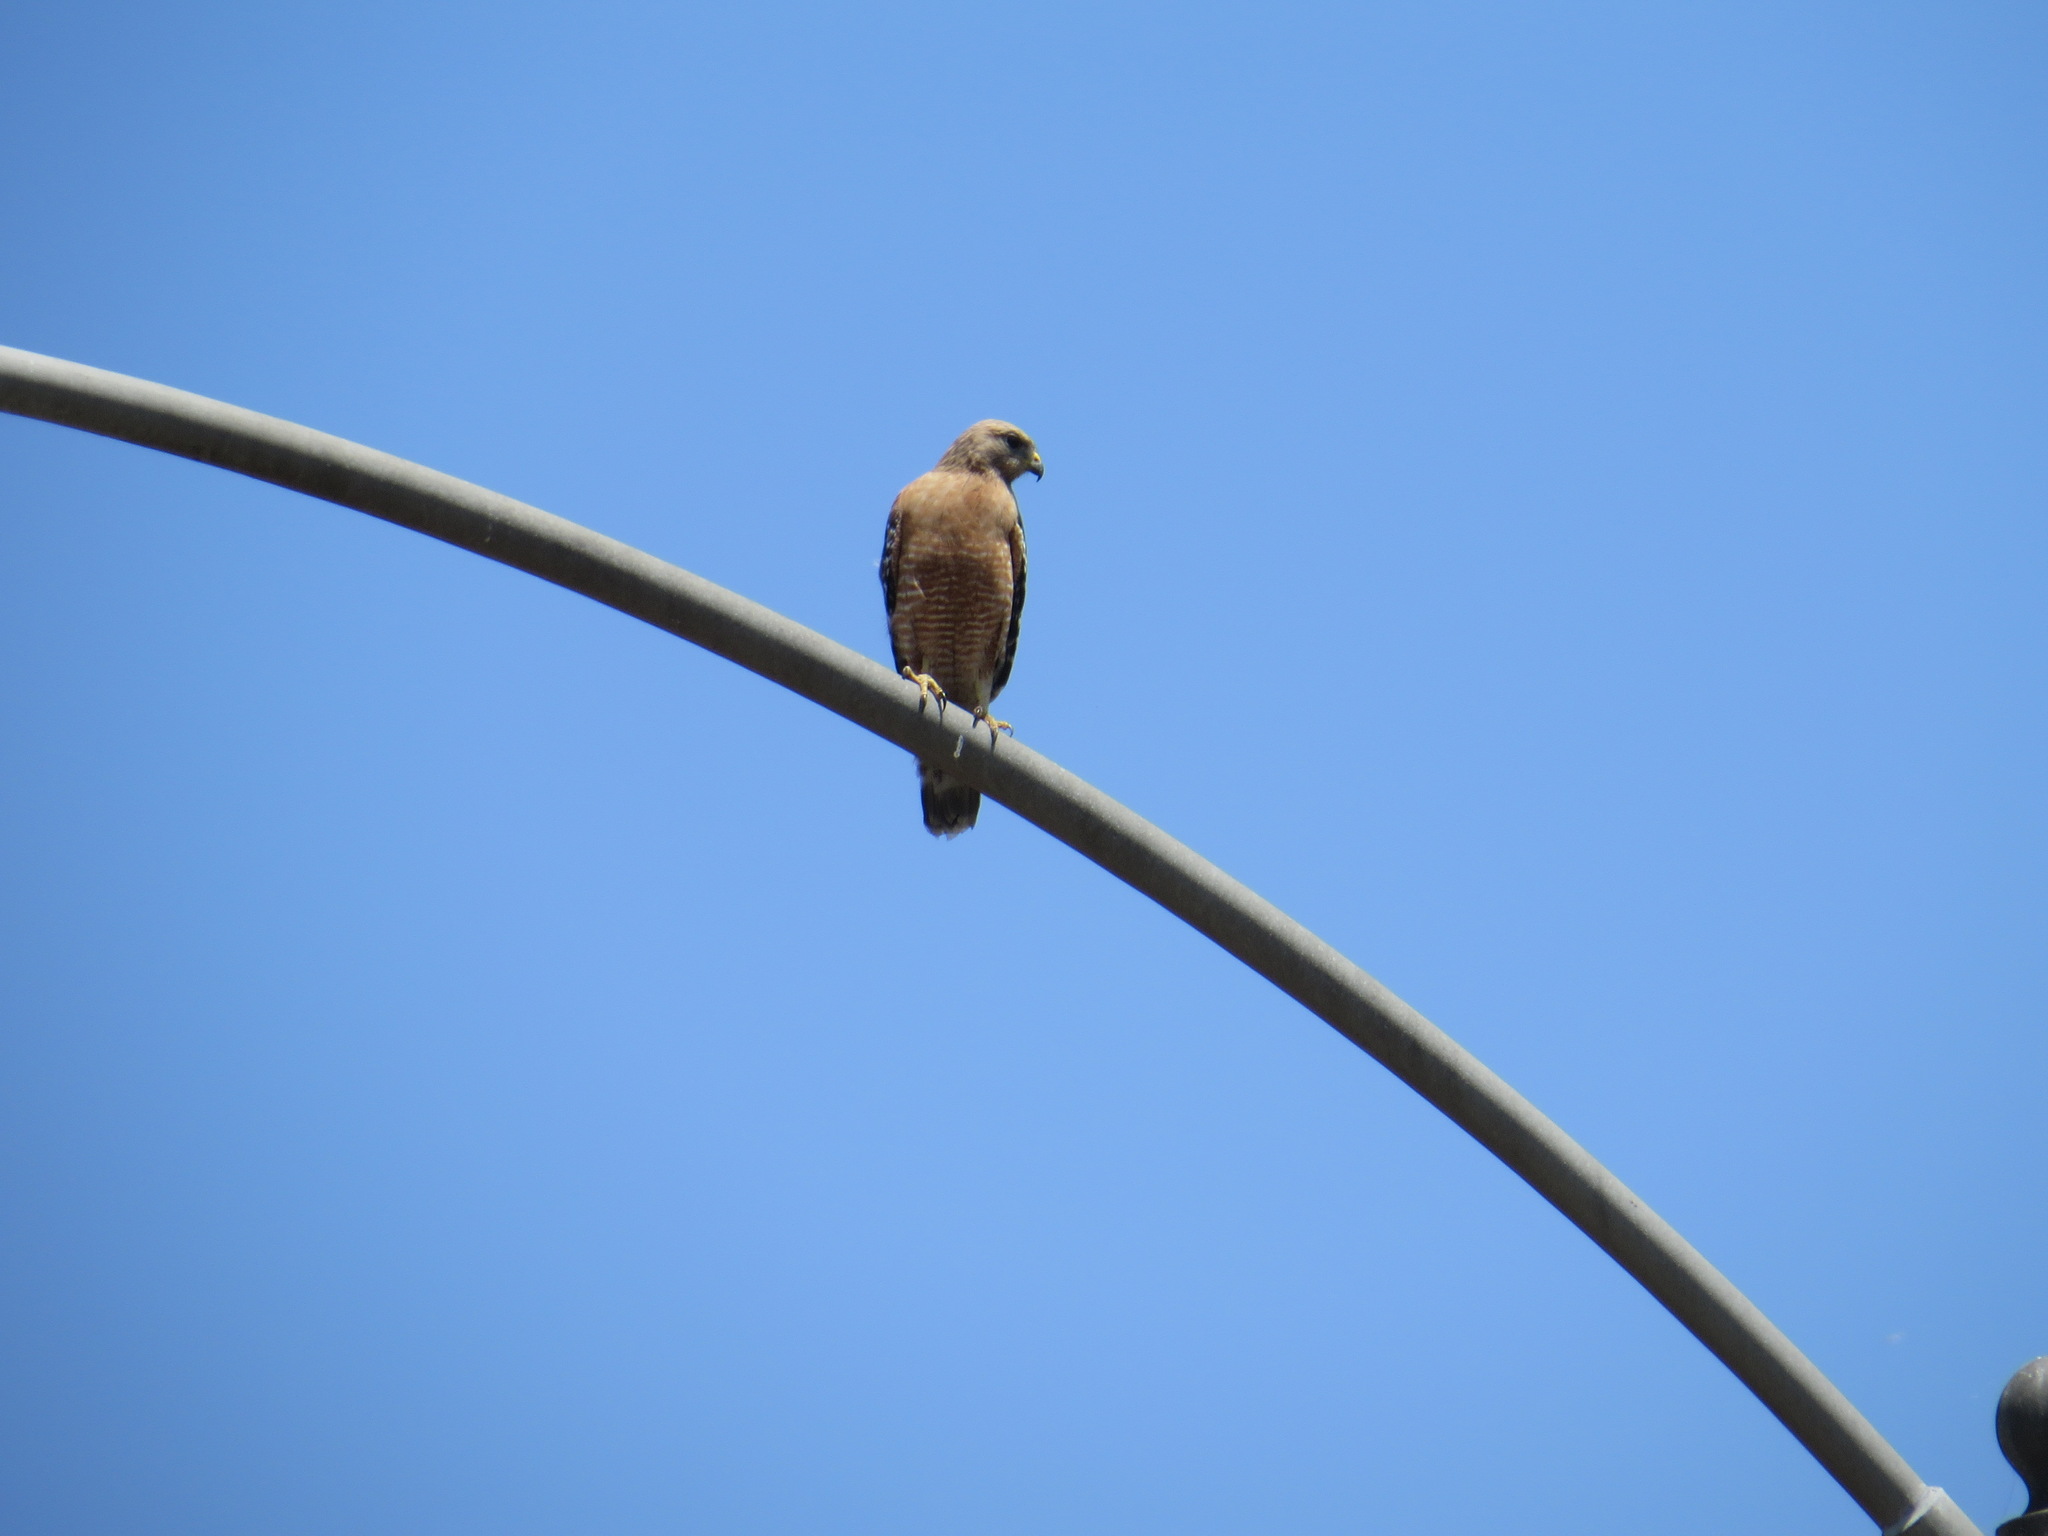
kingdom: Animalia
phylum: Chordata
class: Aves
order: Accipitriformes
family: Accipitridae
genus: Buteo
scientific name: Buteo lineatus
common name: Red-shouldered hawk
